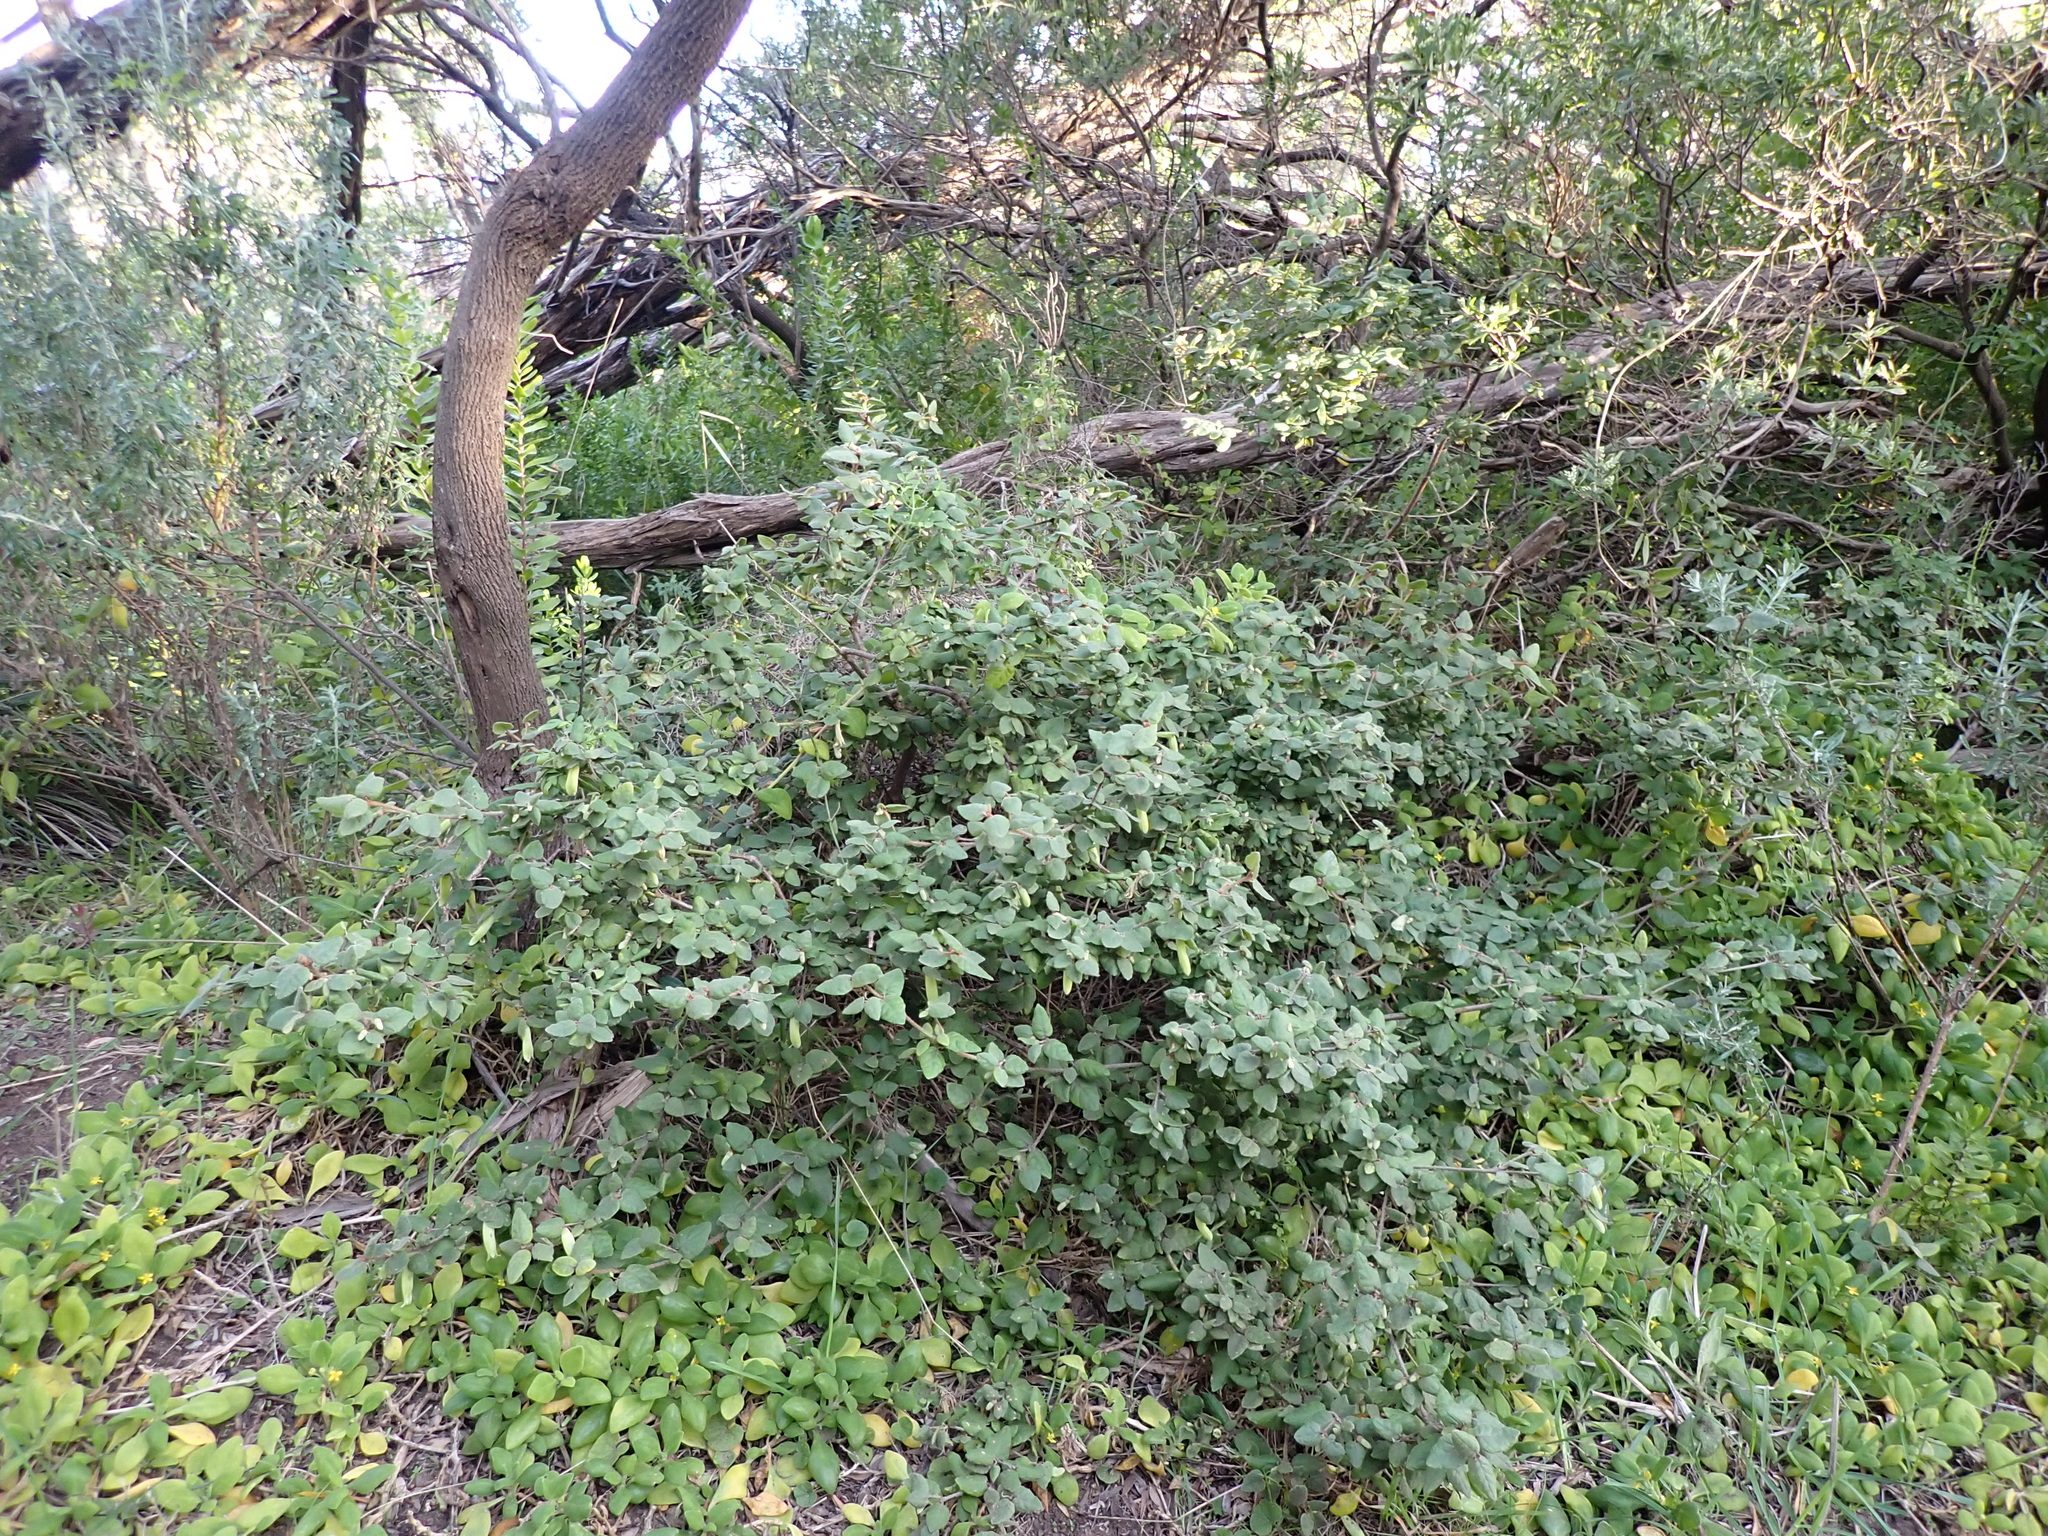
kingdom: Plantae
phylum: Tracheophyta
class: Magnoliopsida
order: Sapindales
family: Rutaceae
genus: Correa
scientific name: Correa reflexa
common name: Common correa
